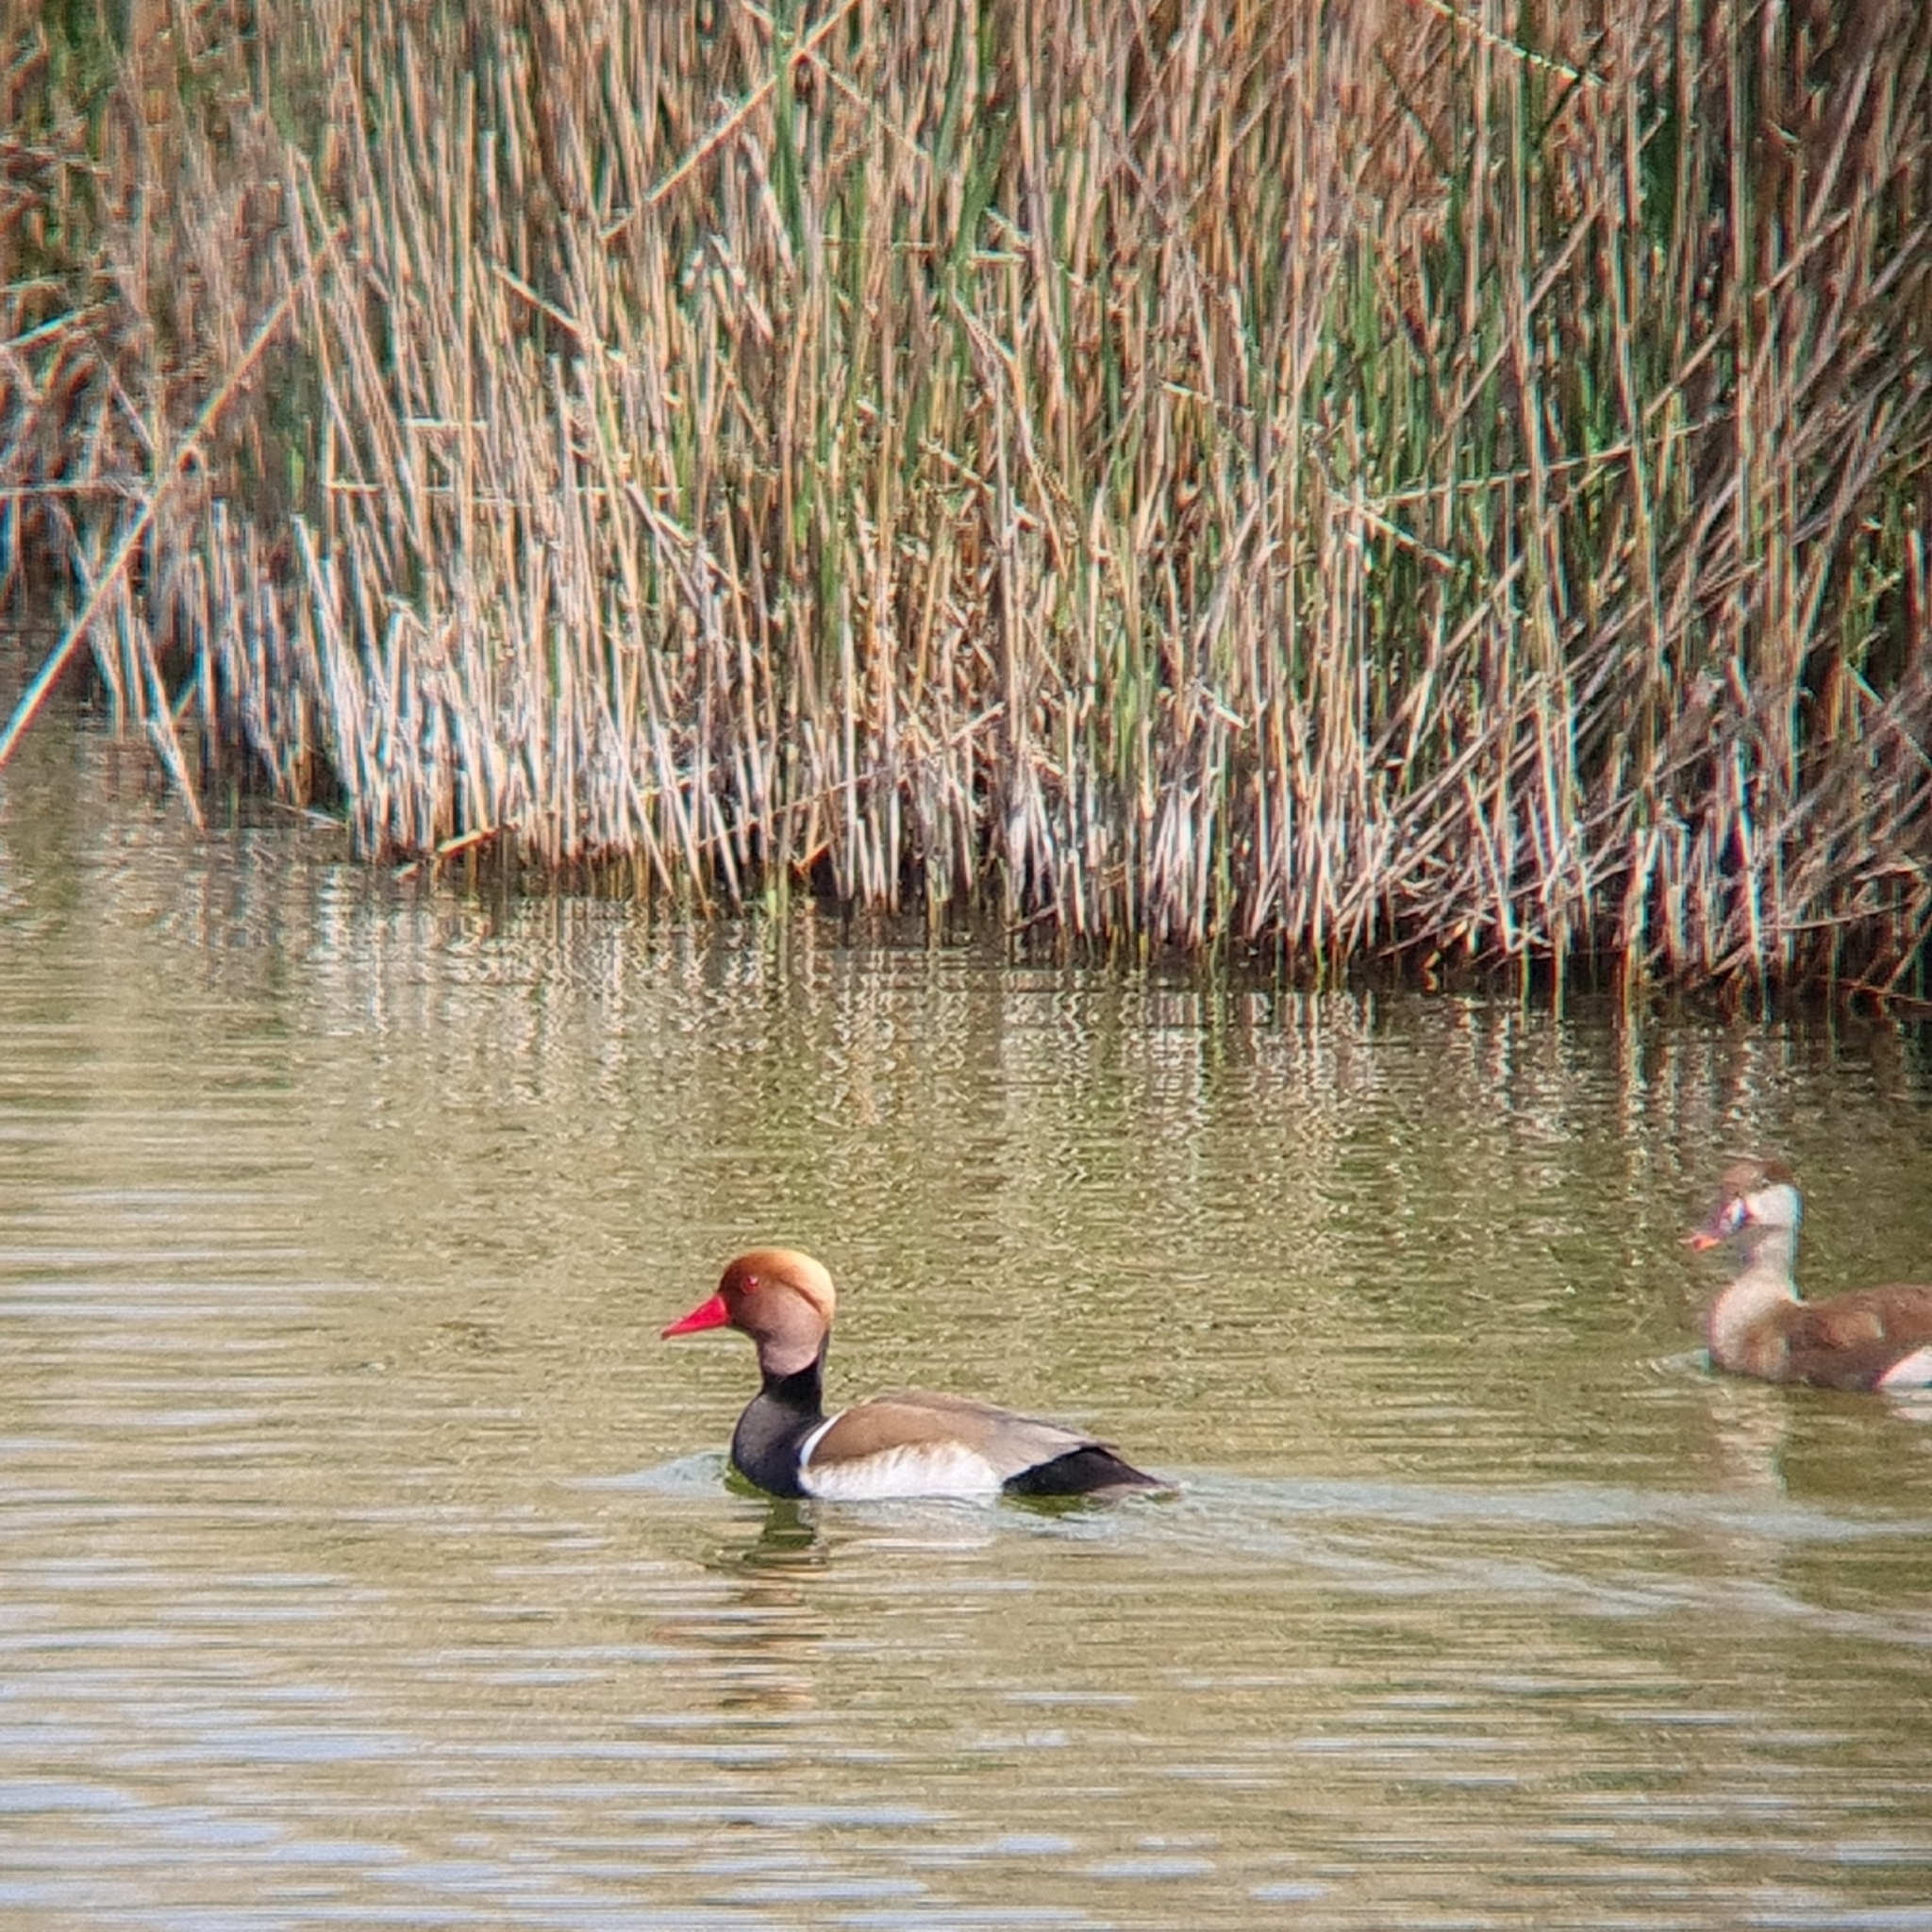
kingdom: Animalia
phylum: Chordata
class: Aves
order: Anseriformes
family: Anatidae
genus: Netta
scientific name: Netta rufina
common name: Red-crested pochard
